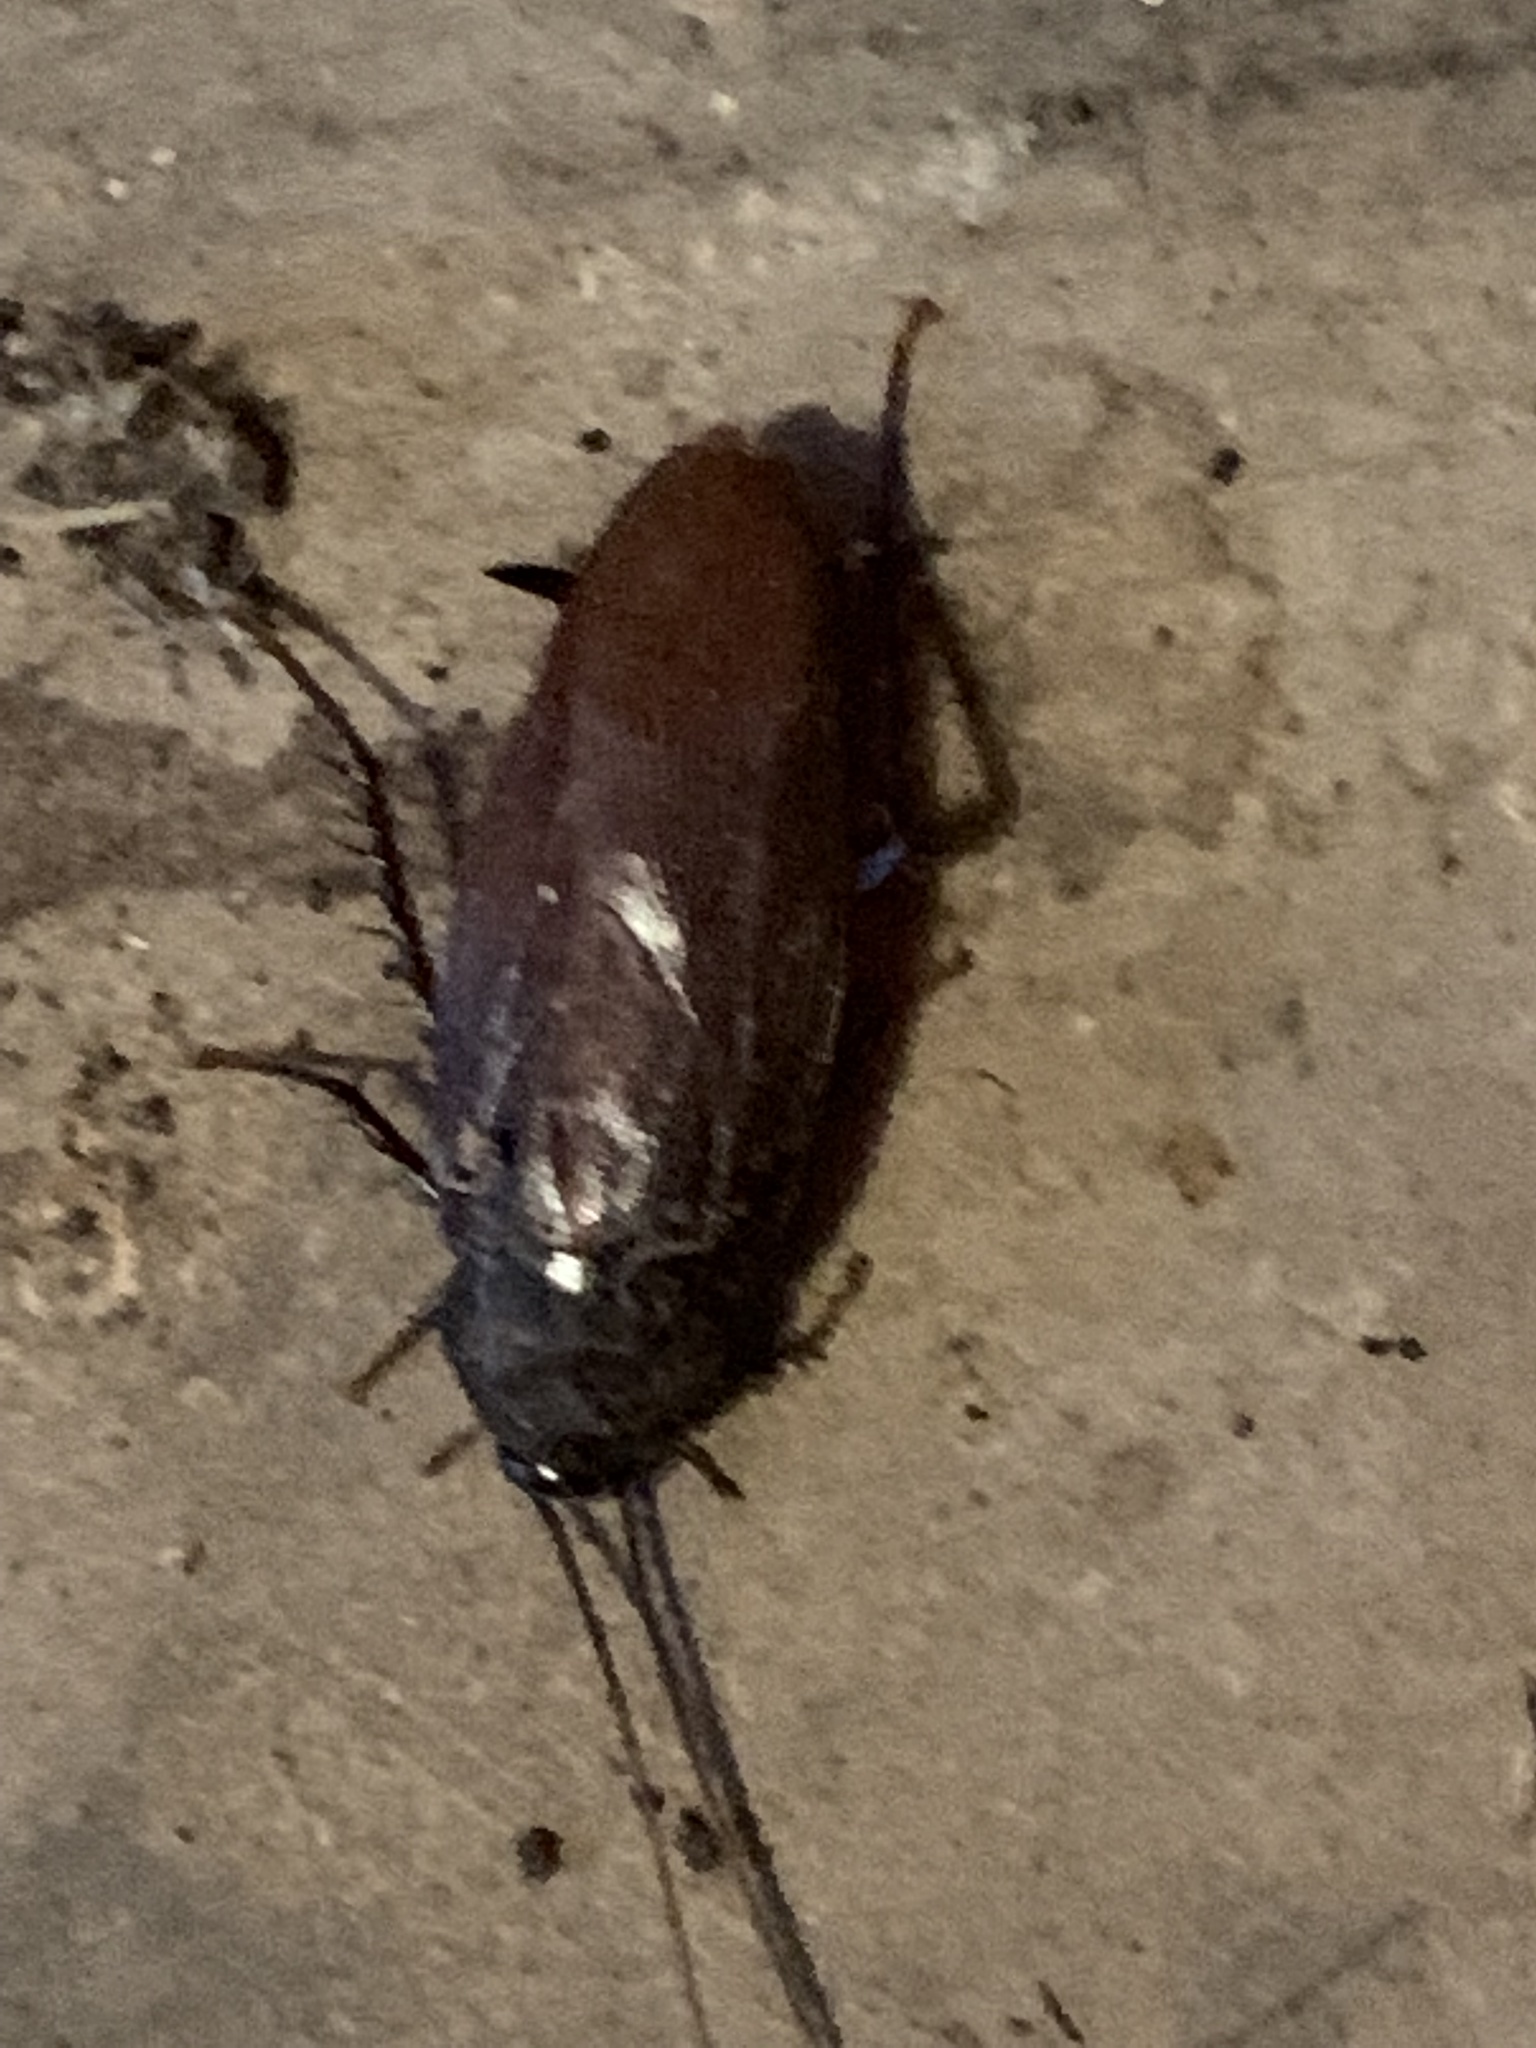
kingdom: Animalia
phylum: Arthropoda
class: Insecta
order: Blattodea
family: Blattidae
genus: Periplaneta
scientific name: Periplaneta fuliginosa
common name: Smokeybrown cockroad
